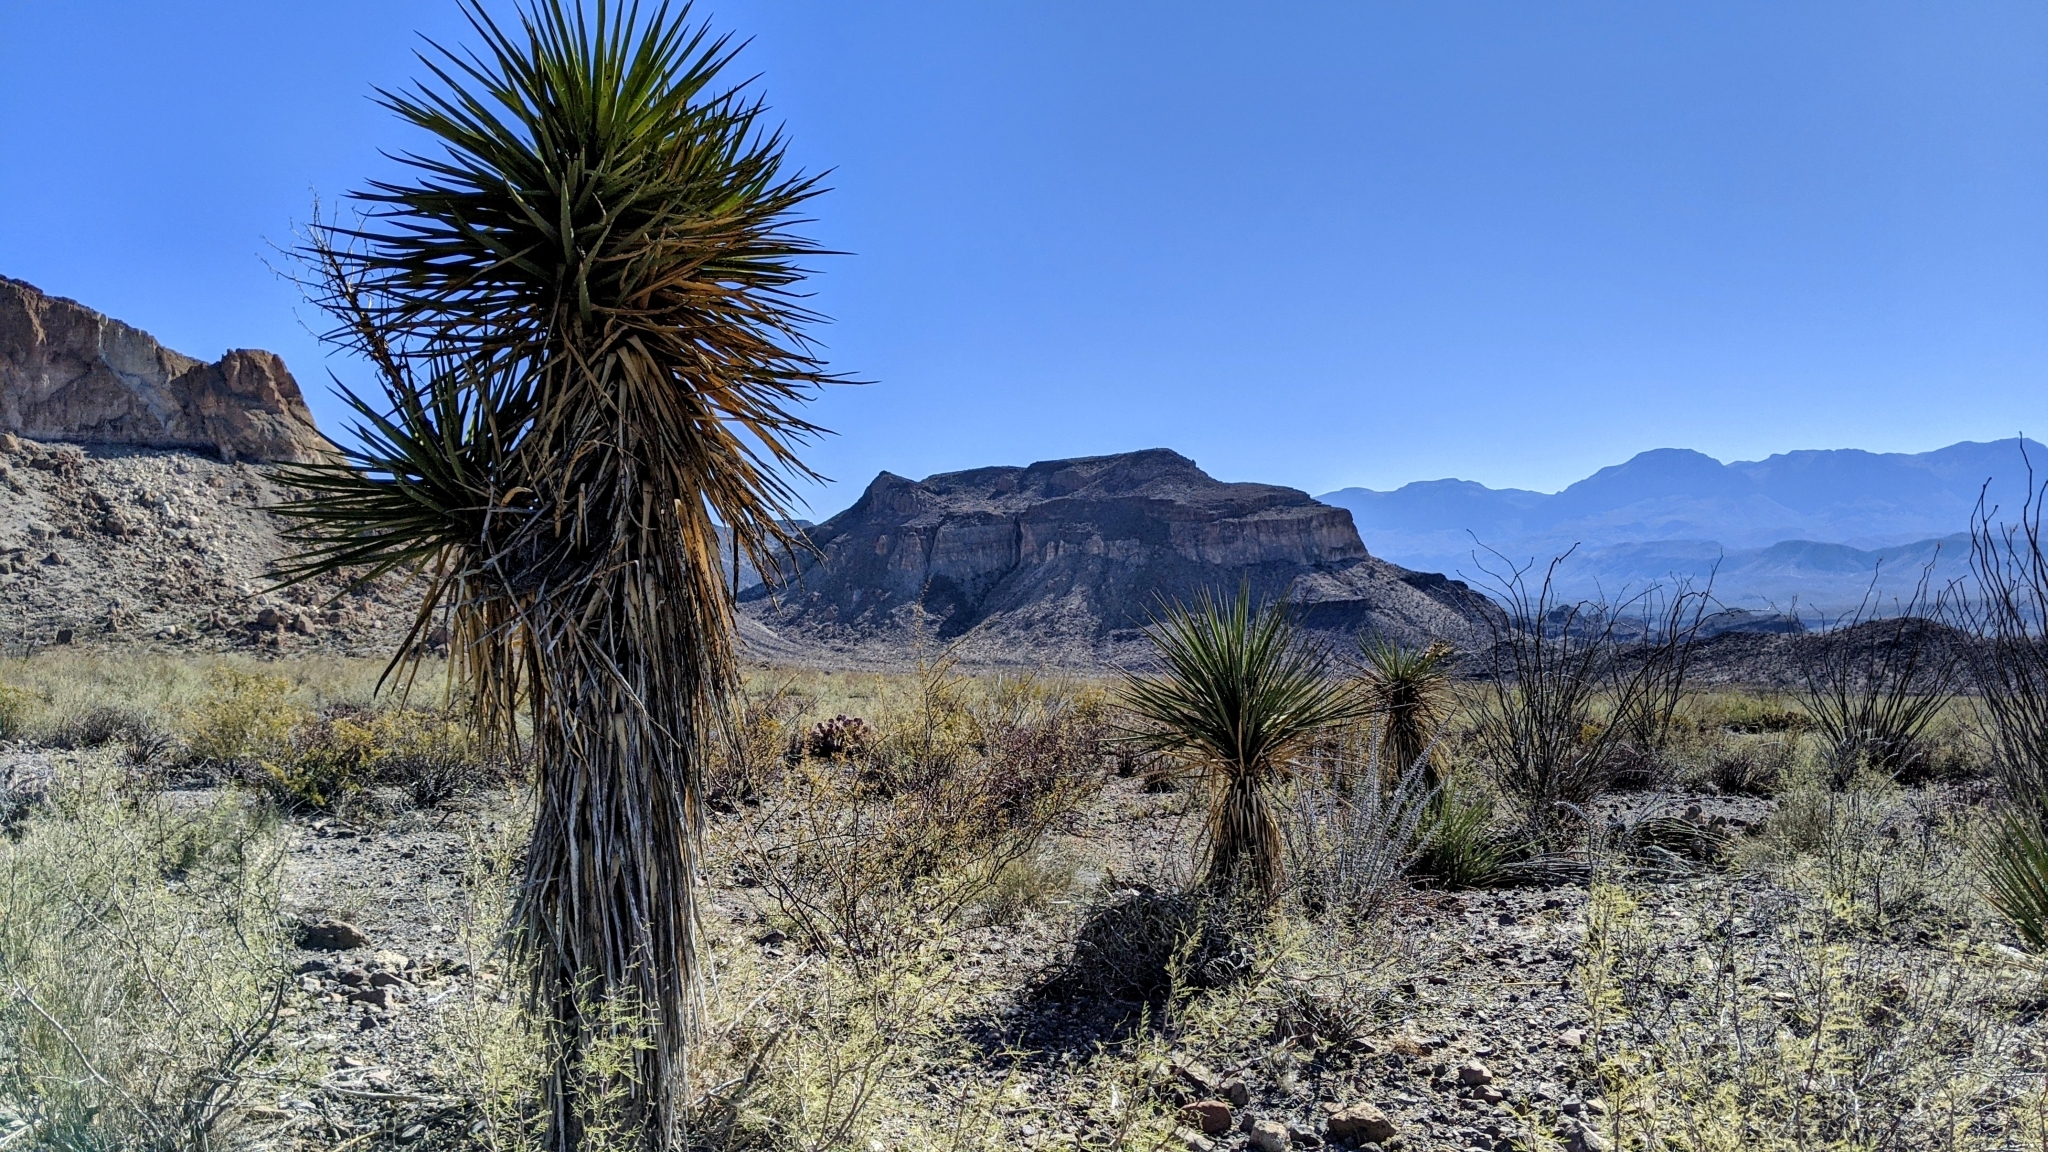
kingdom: Plantae
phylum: Tracheophyta
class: Liliopsida
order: Asparagales
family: Asparagaceae
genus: Yucca
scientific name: Yucca treculiana
